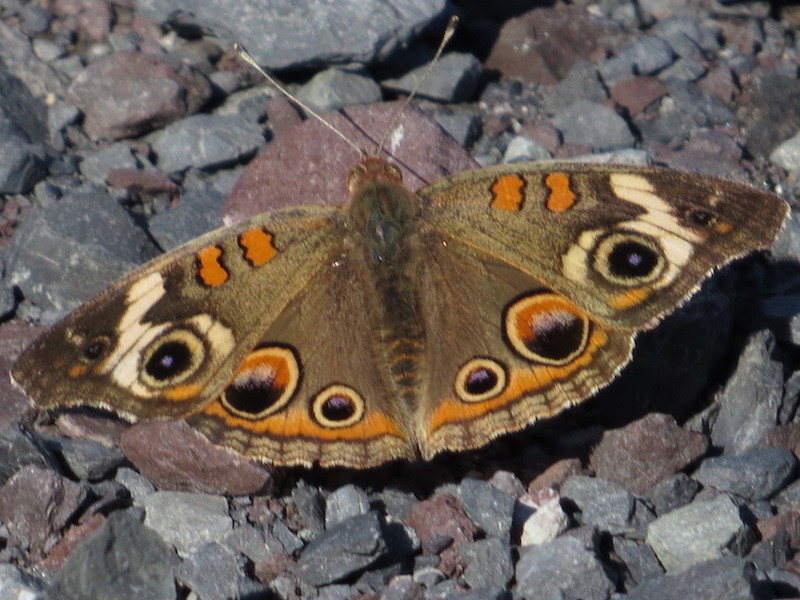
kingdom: Animalia
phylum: Arthropoda
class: Insecta
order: Lepidoptera
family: Nymphalidae
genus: Junonia
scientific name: Junonia coenia
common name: Common buckeye
